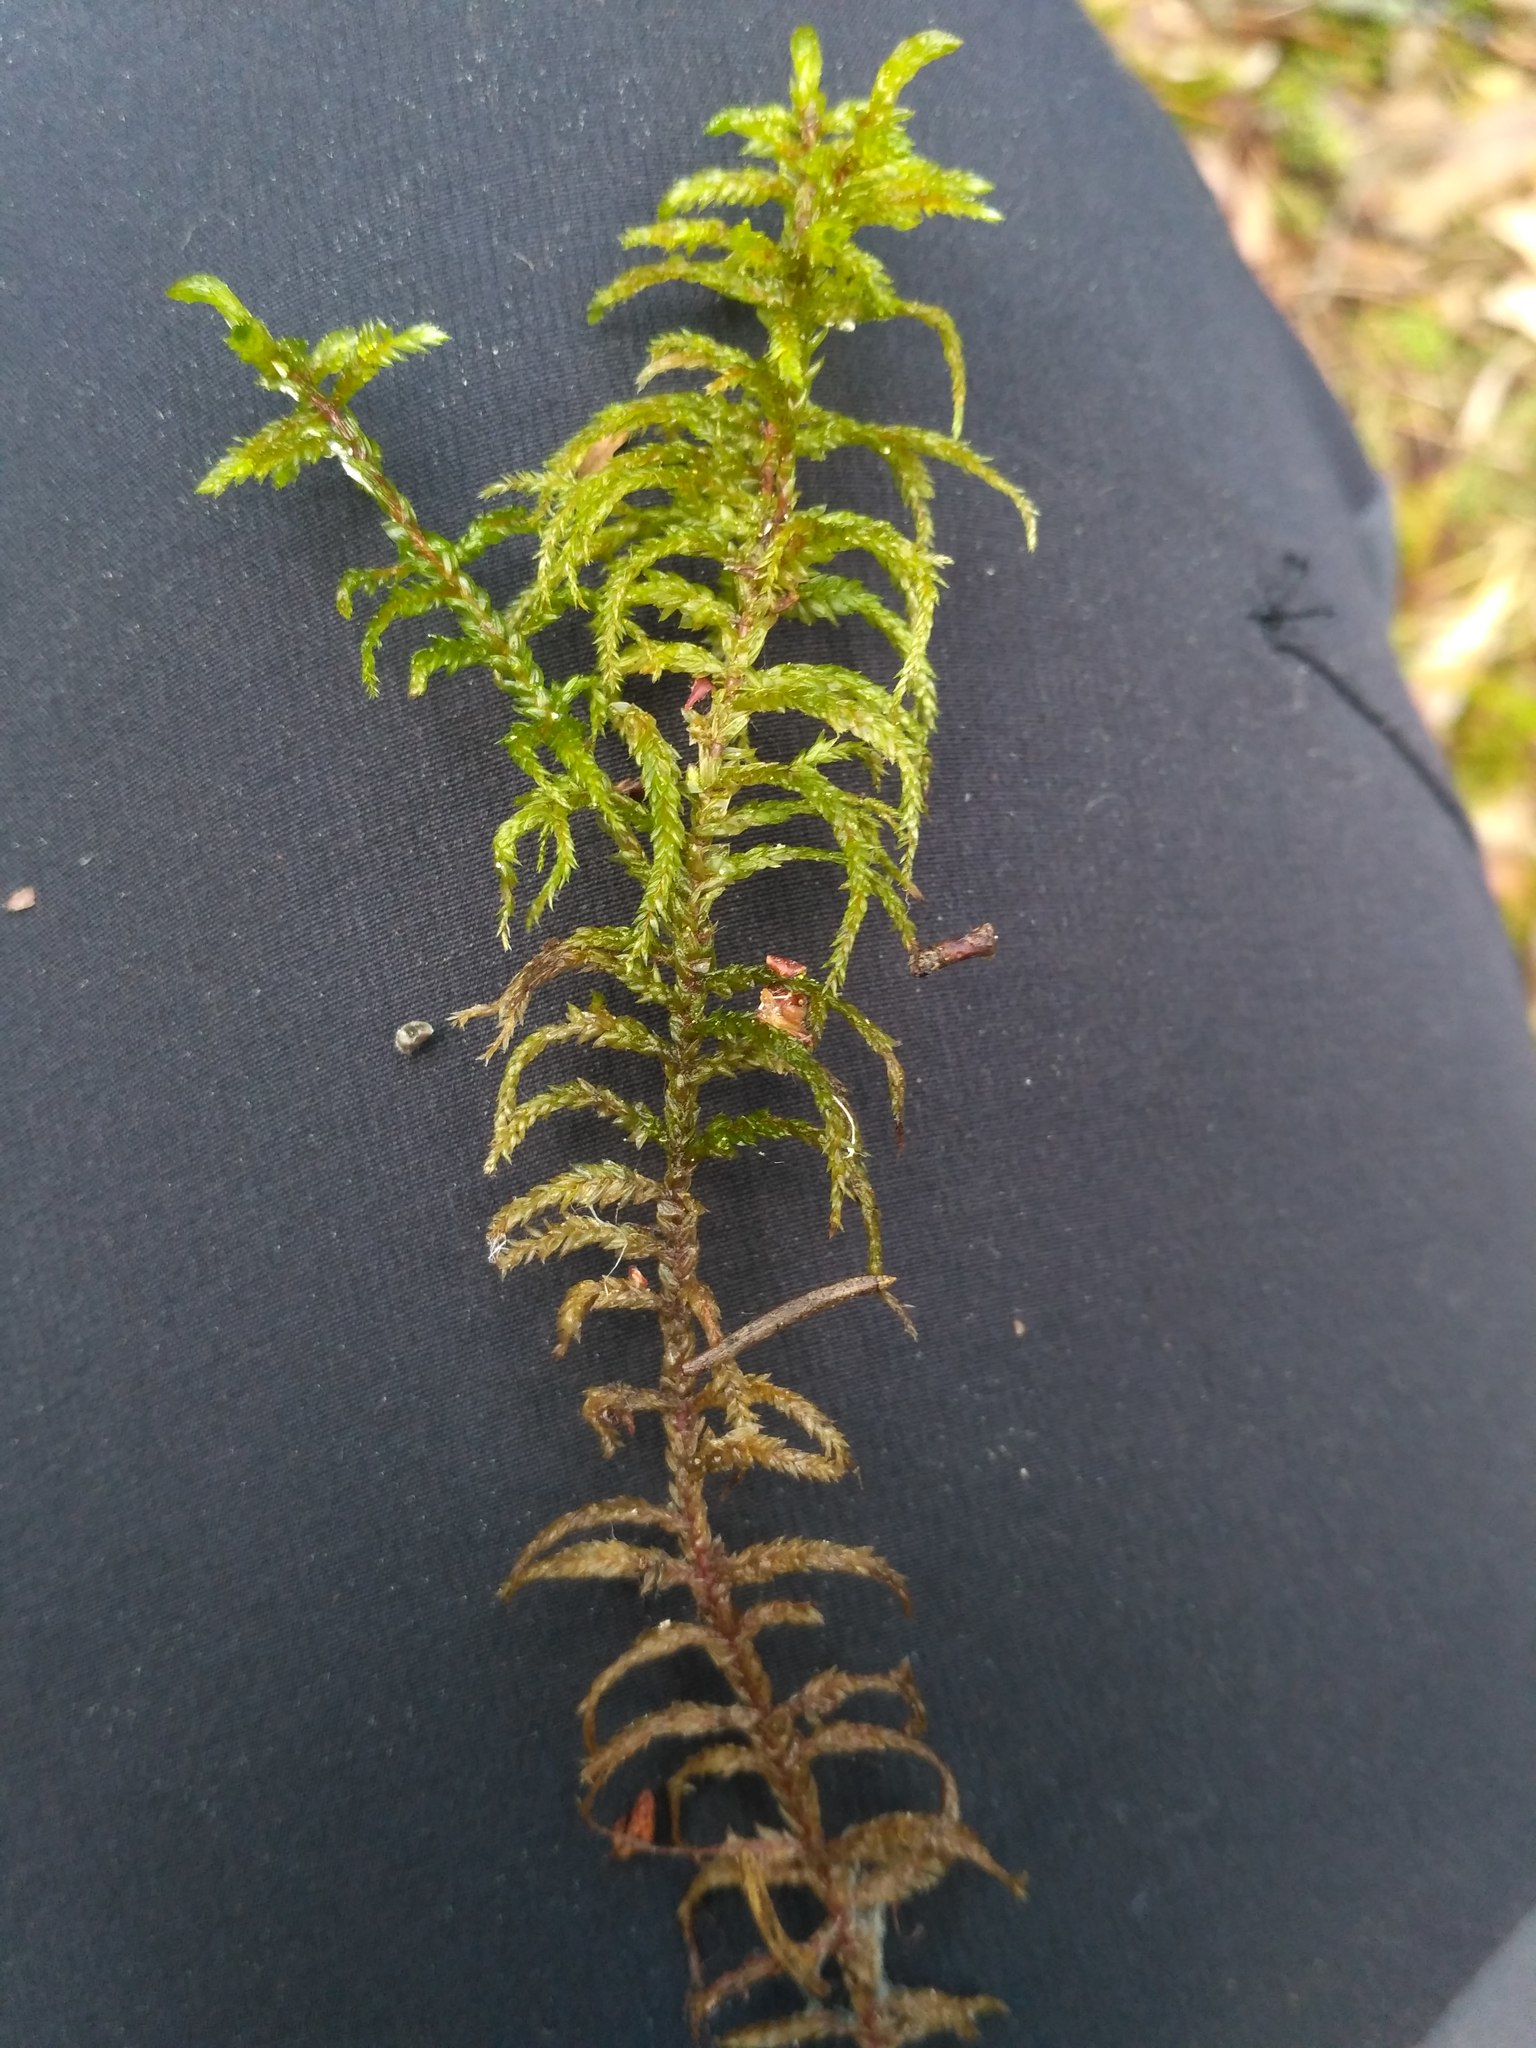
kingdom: Plantae
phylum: Bryophyta
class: Bryopsida
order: Hypnales
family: Hylocomiaceae
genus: Pleurozium
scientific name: Pleurozium schreberi
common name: Red-stemmed feather moss
